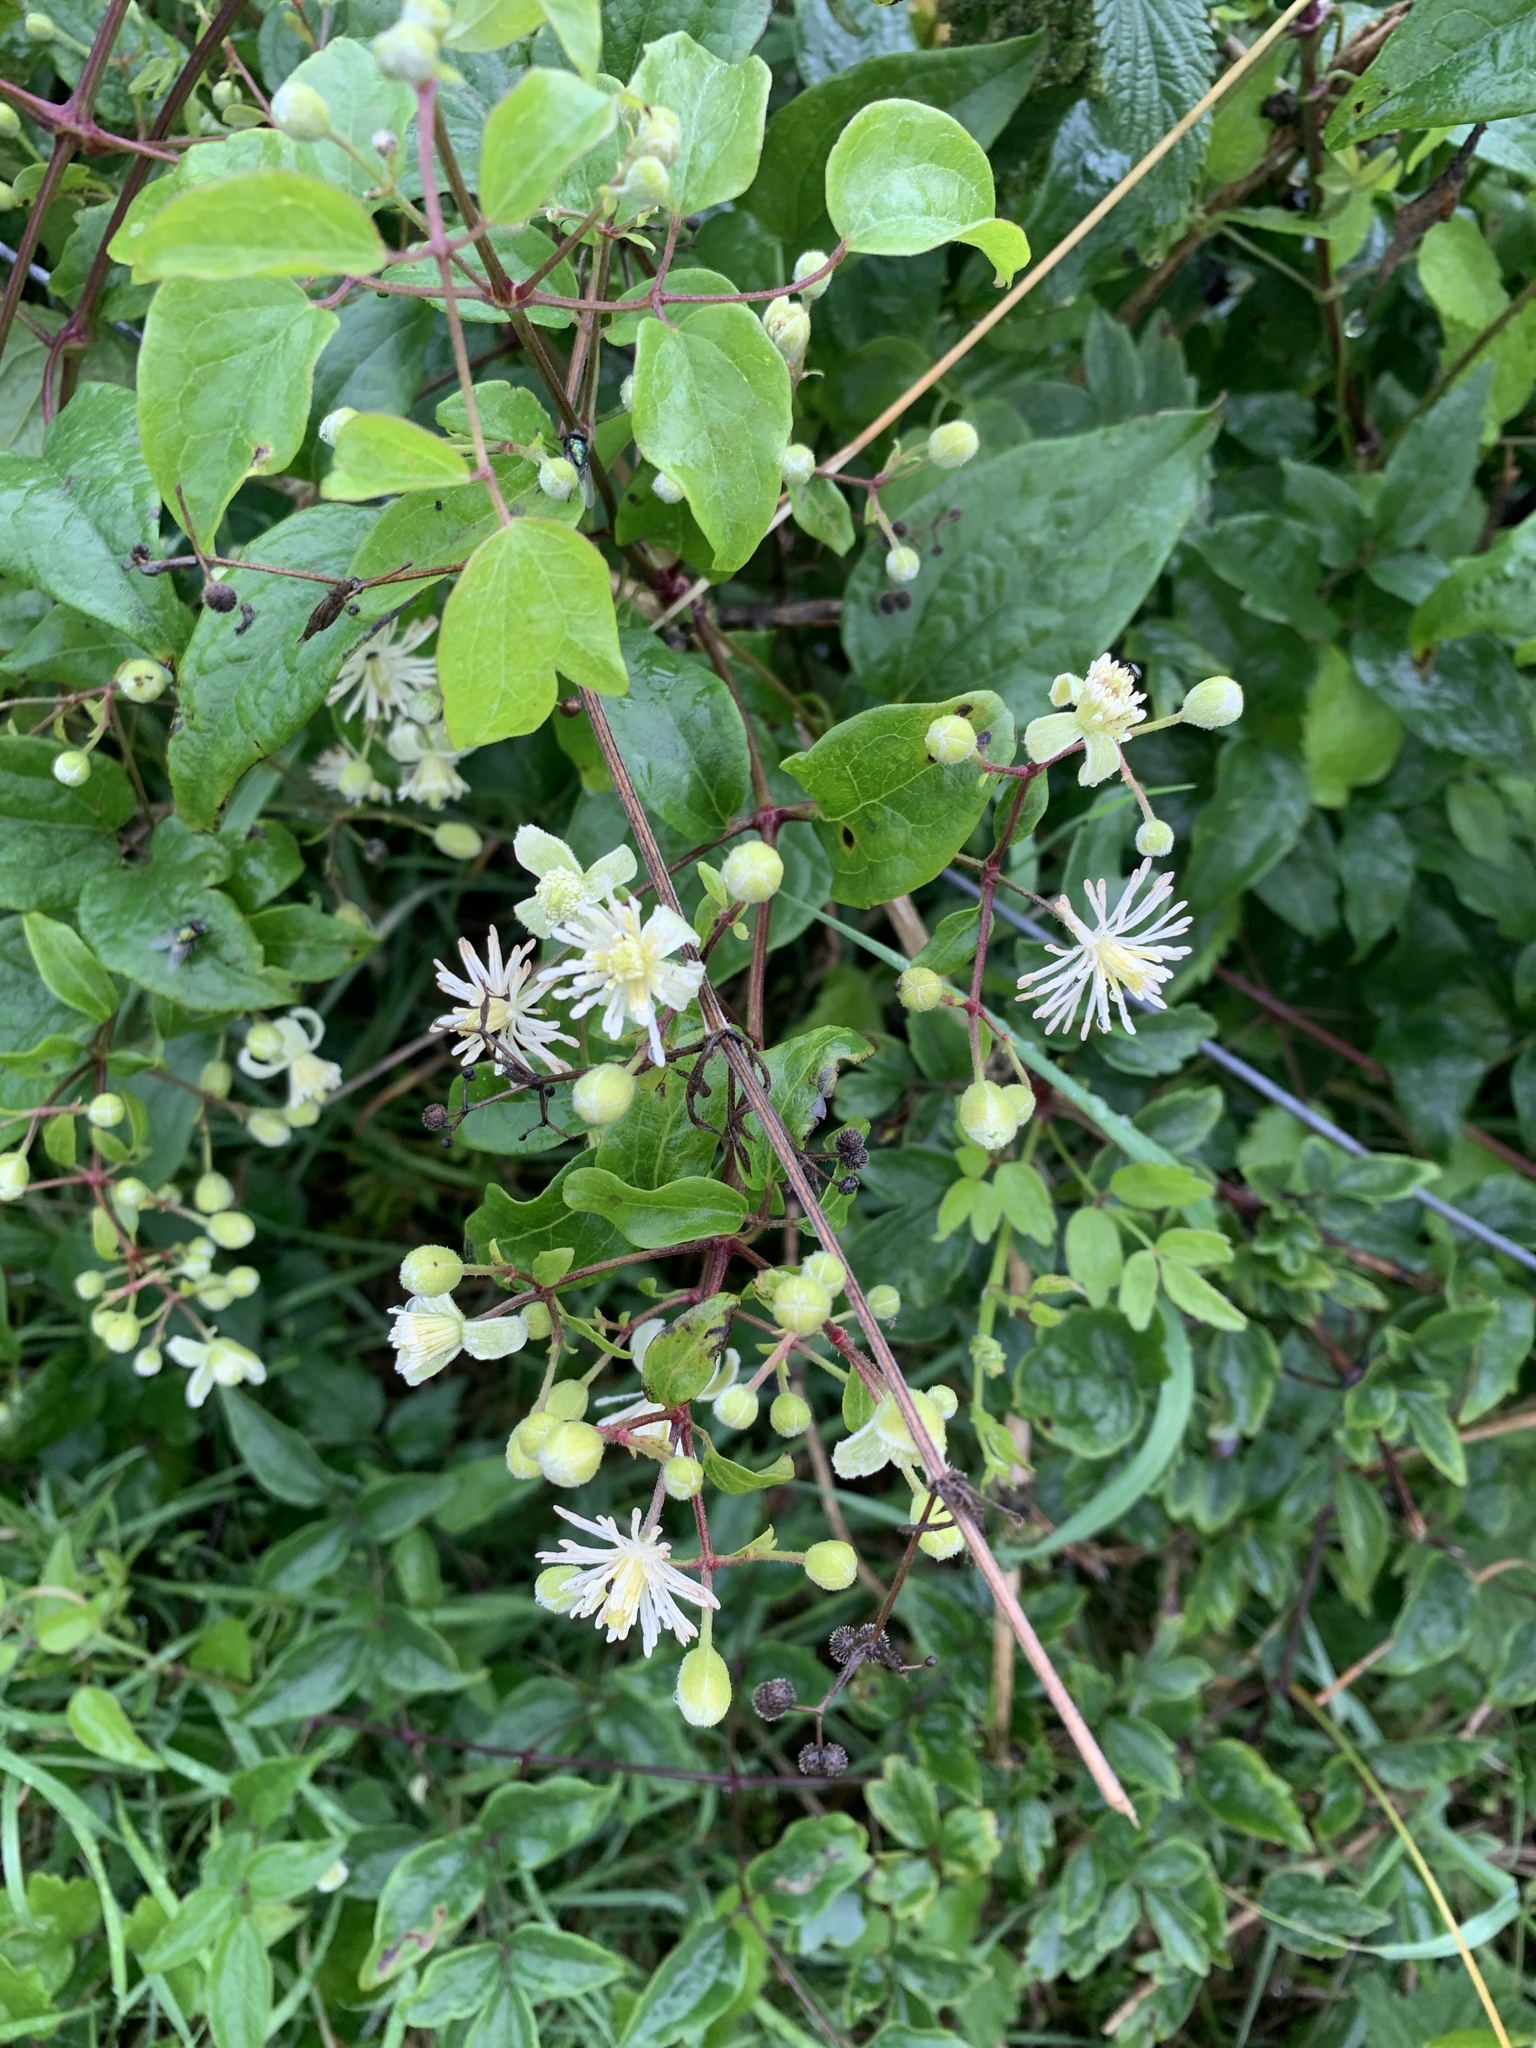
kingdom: Plantae
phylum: Tracheophyta
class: Magnoliopsida
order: Ranunculales
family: Ranunculaceae
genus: Clematis
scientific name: Clematis vitalba
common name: Evergreen clematis
